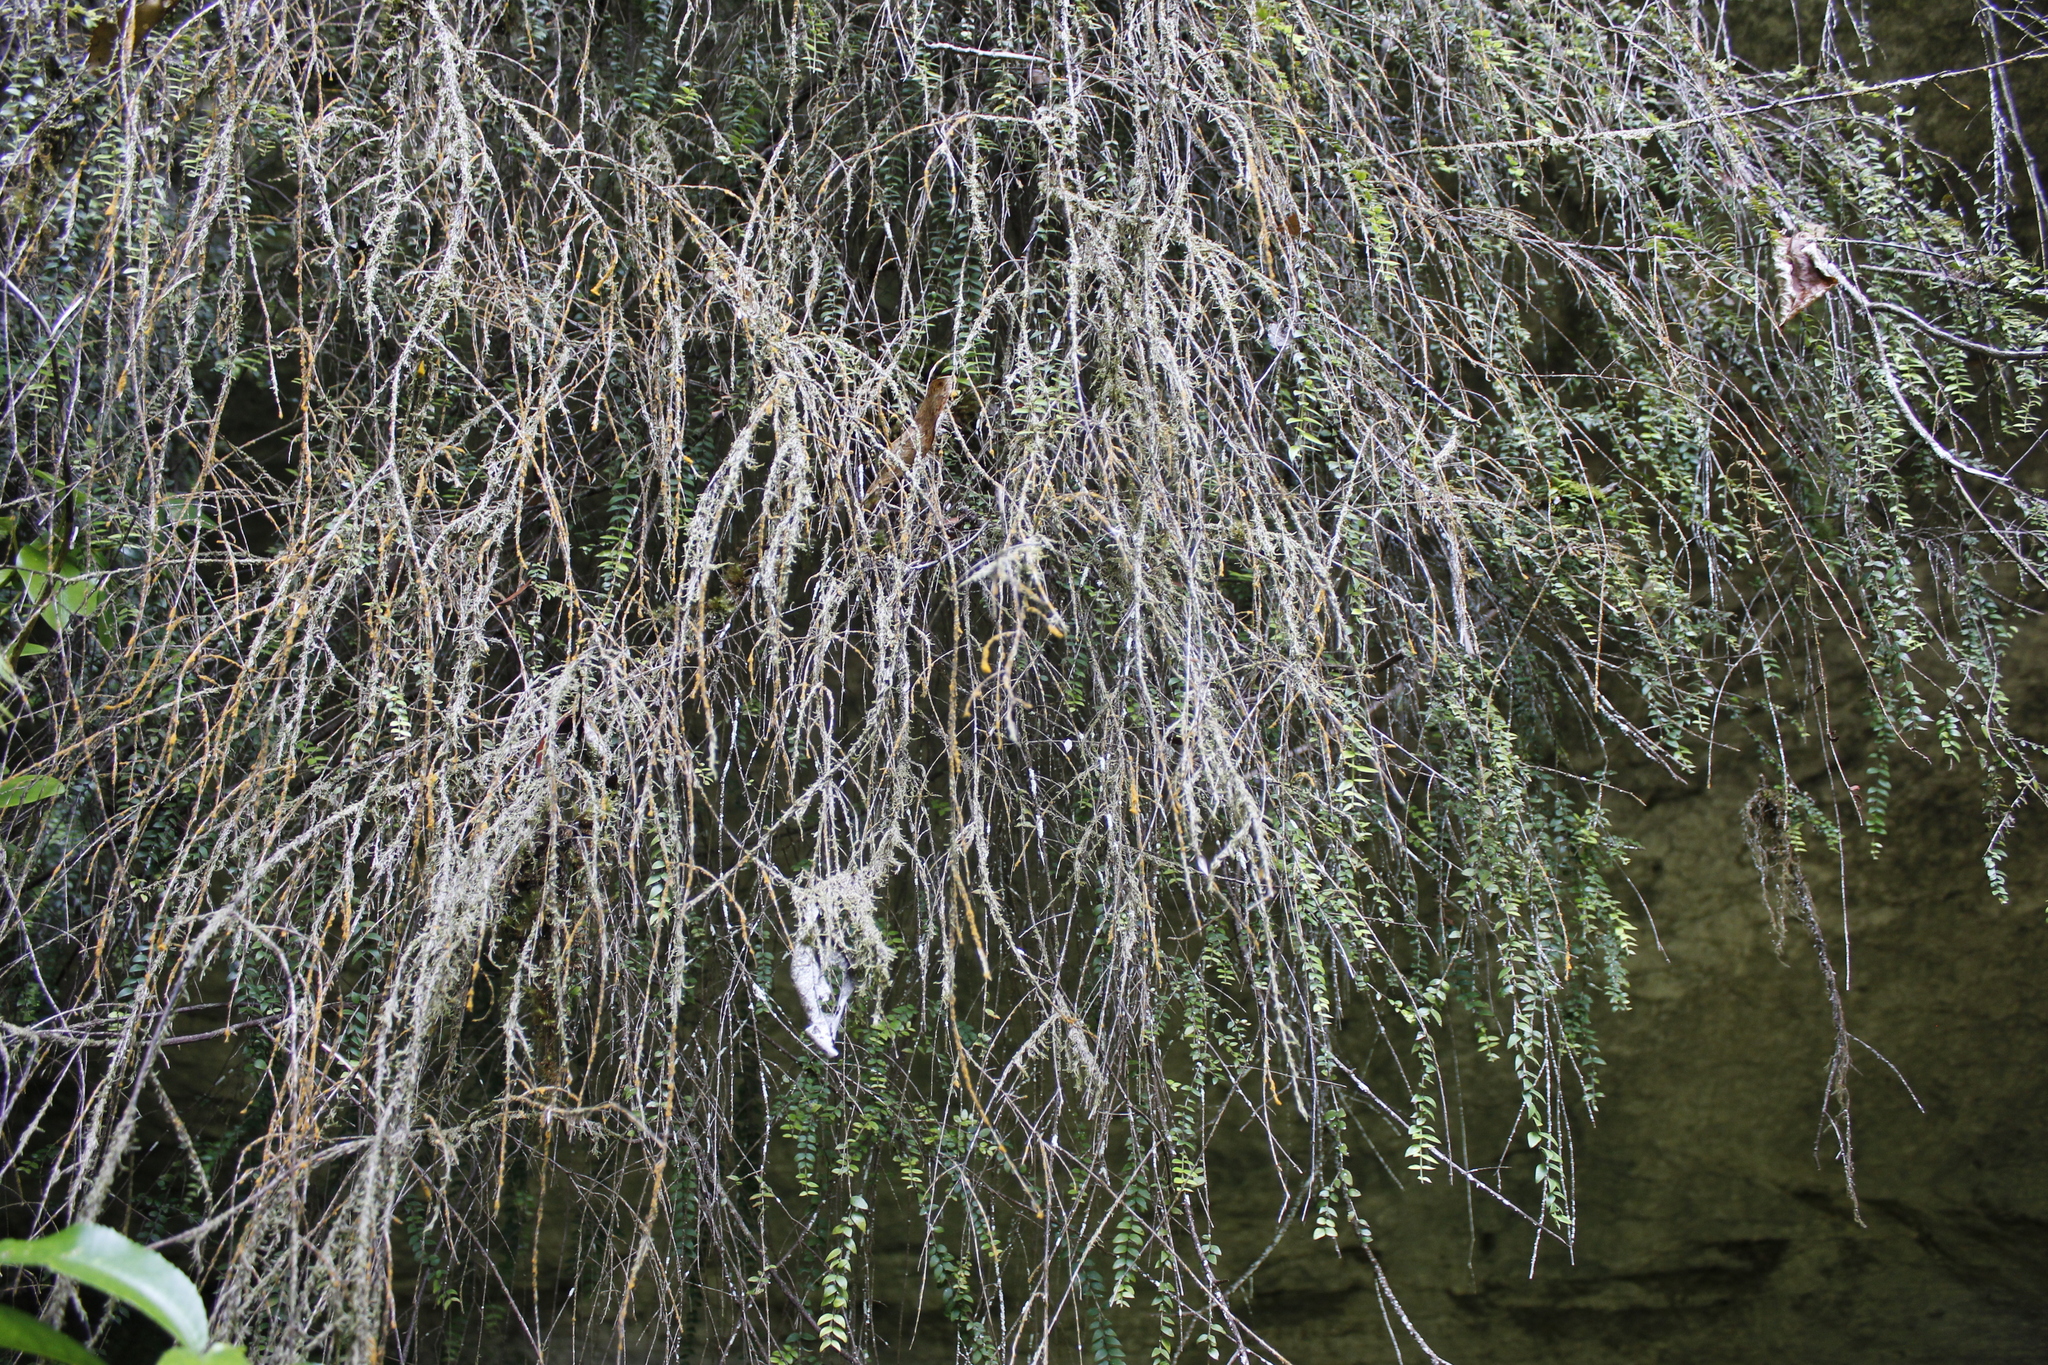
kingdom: Plantae
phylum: Tracheophyta
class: Magnoliopsida
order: Myrtales
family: Myrtaceae
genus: Metrosideros
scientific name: Metrosideros colensoi
